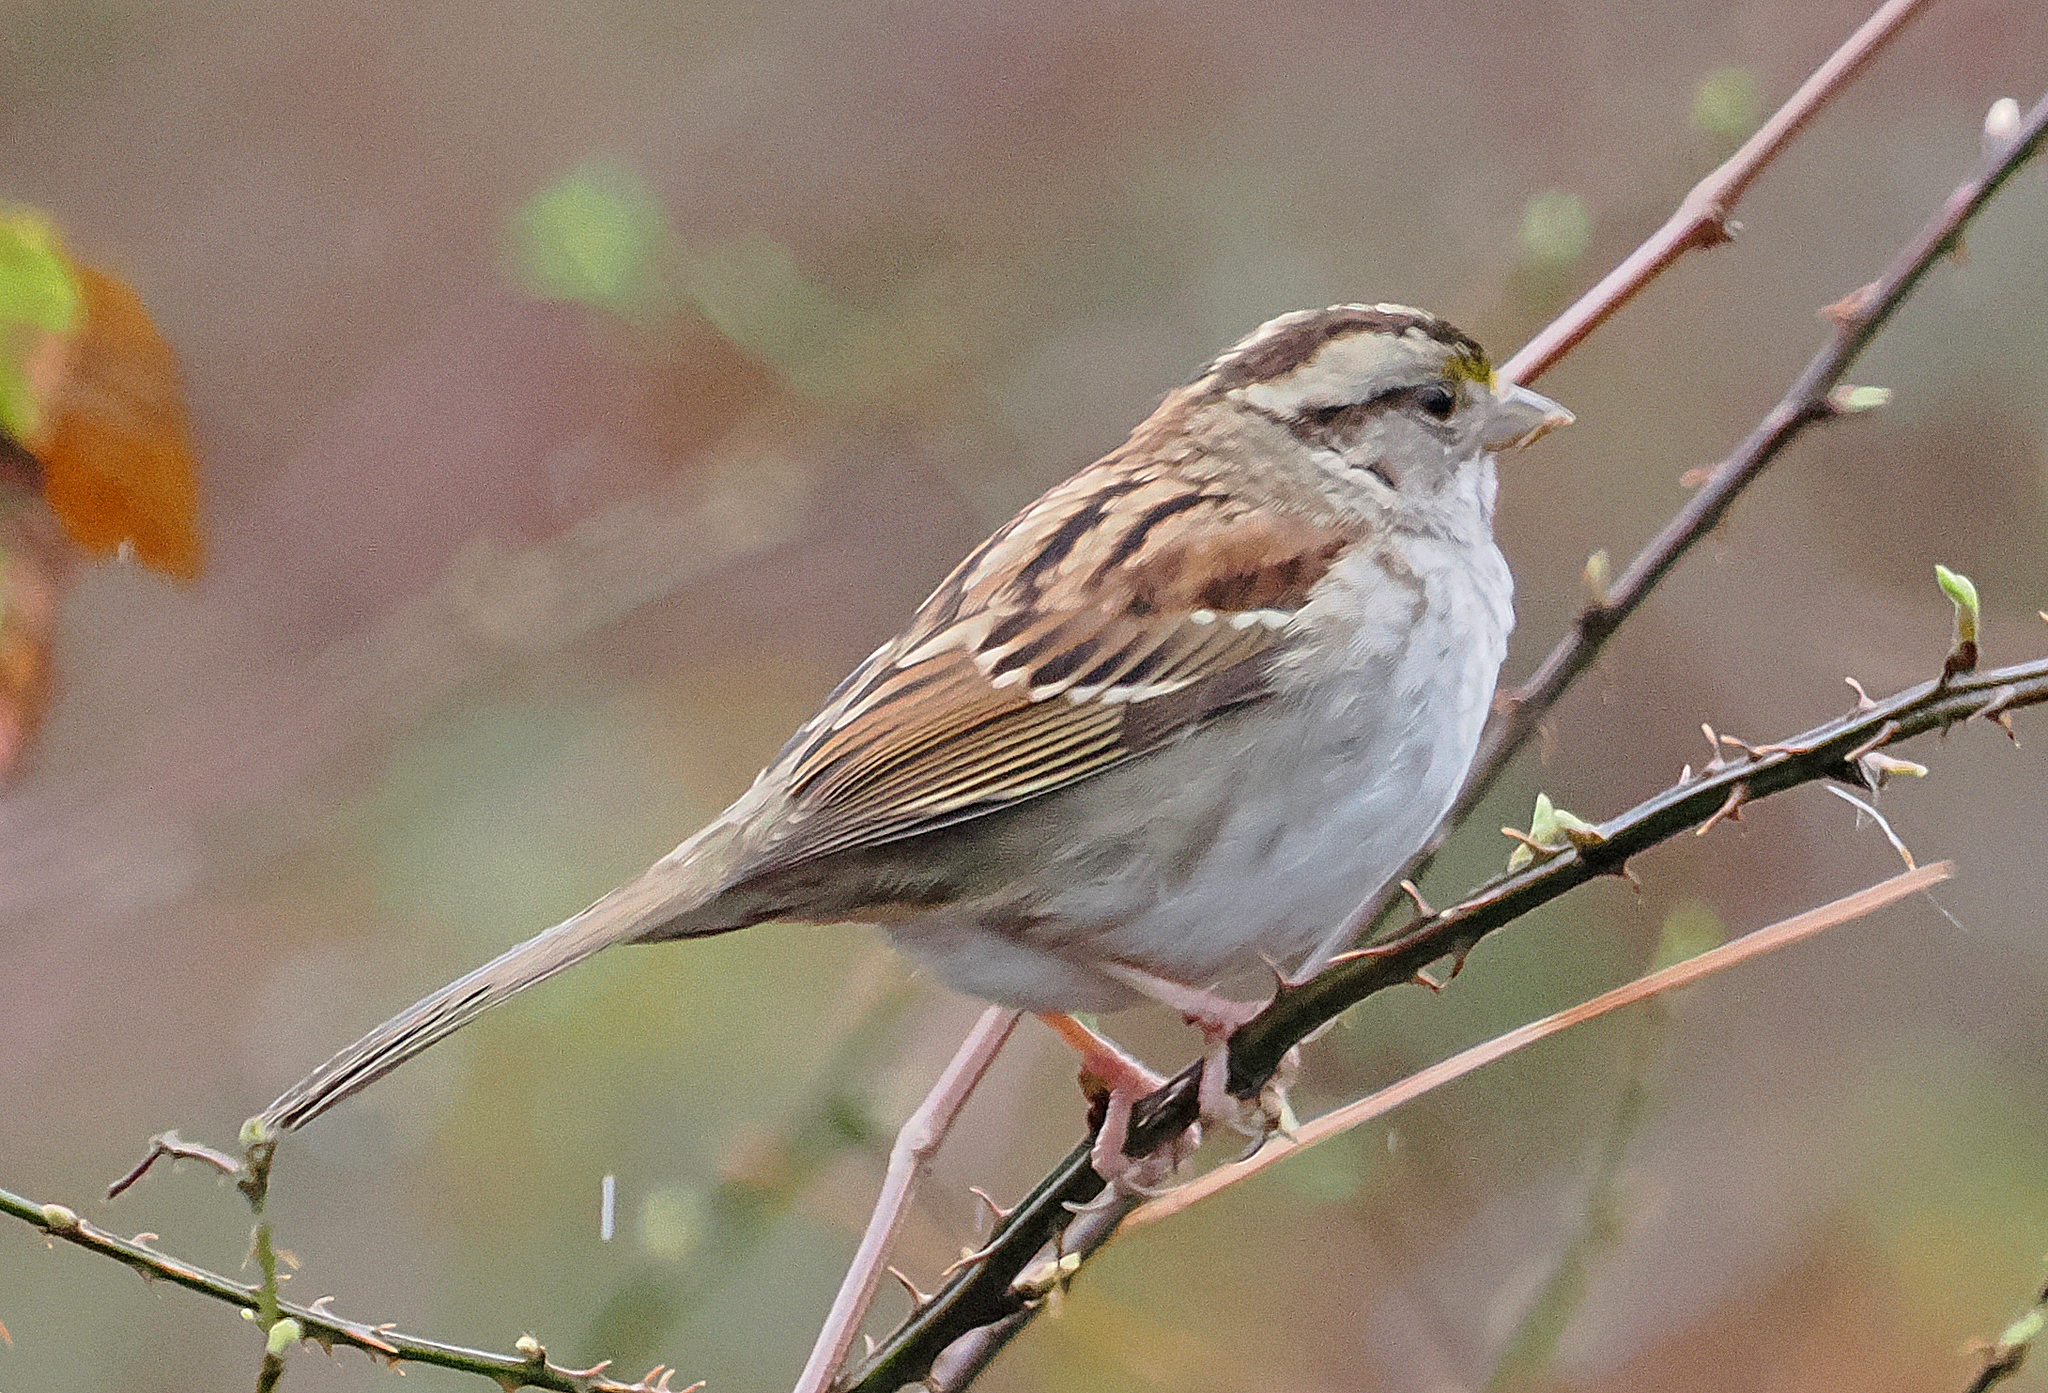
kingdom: Animalia
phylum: Chordata
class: Aves
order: Passeriformes
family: Passerellidae
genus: Zonotrichia
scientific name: Zonotrichia albicollis
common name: White-throated sparrow
